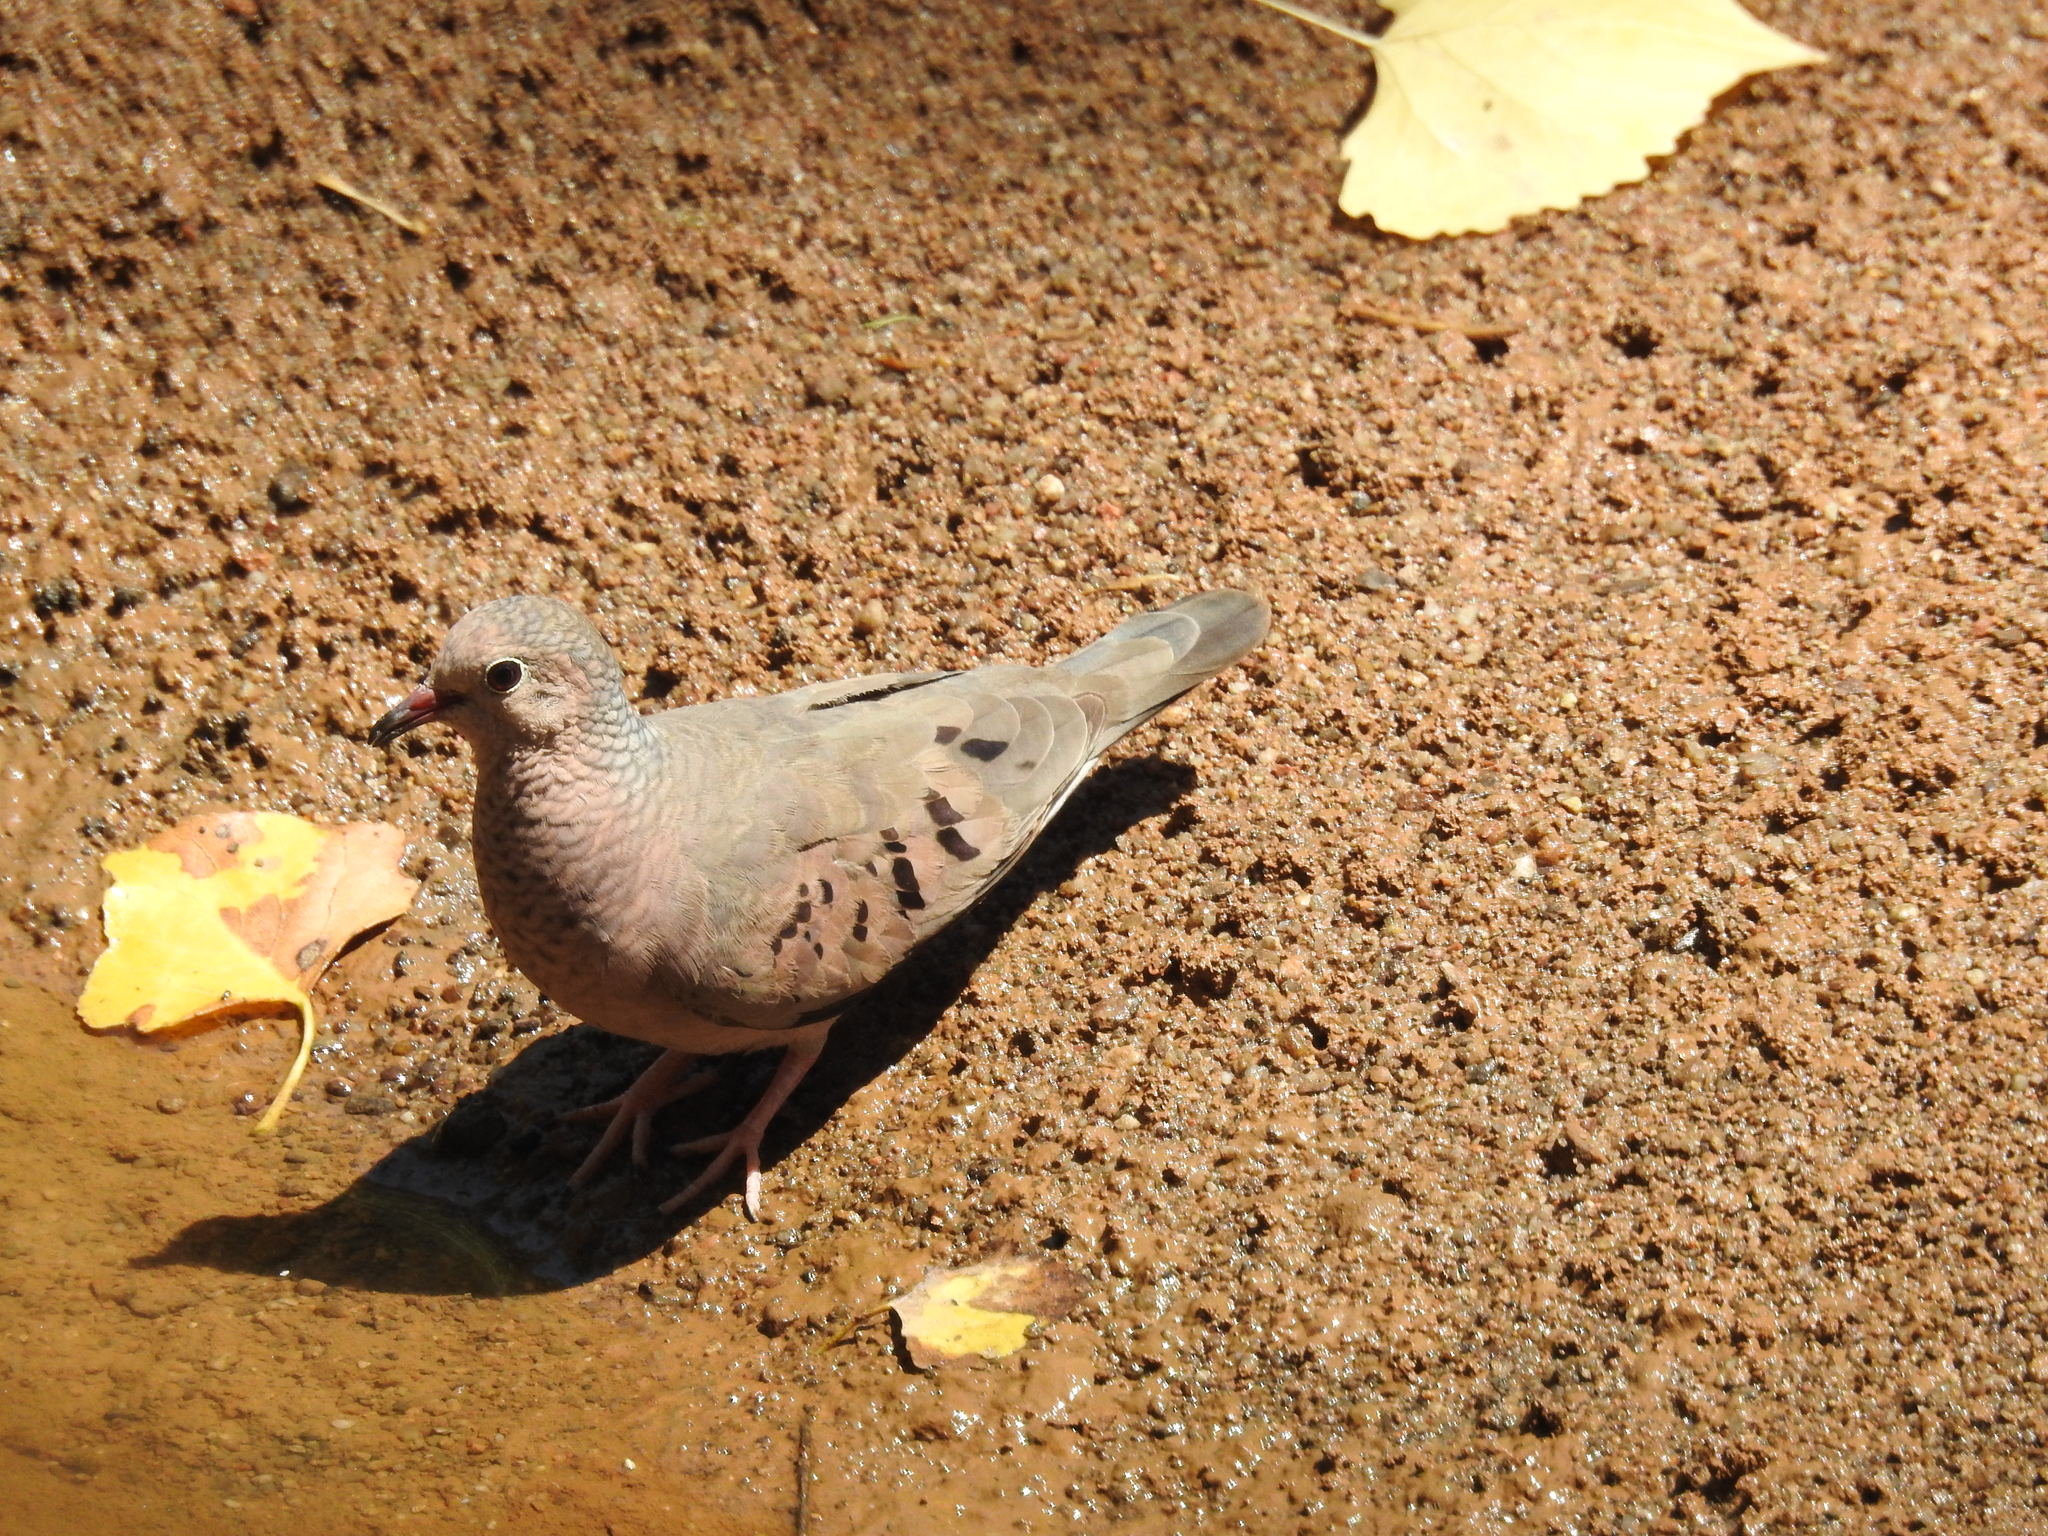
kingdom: Animalia
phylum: Chordata
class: Aves
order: Columbiformes
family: Columbidae
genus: Columbina
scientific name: Columbina passerina
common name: Common ground-dove
